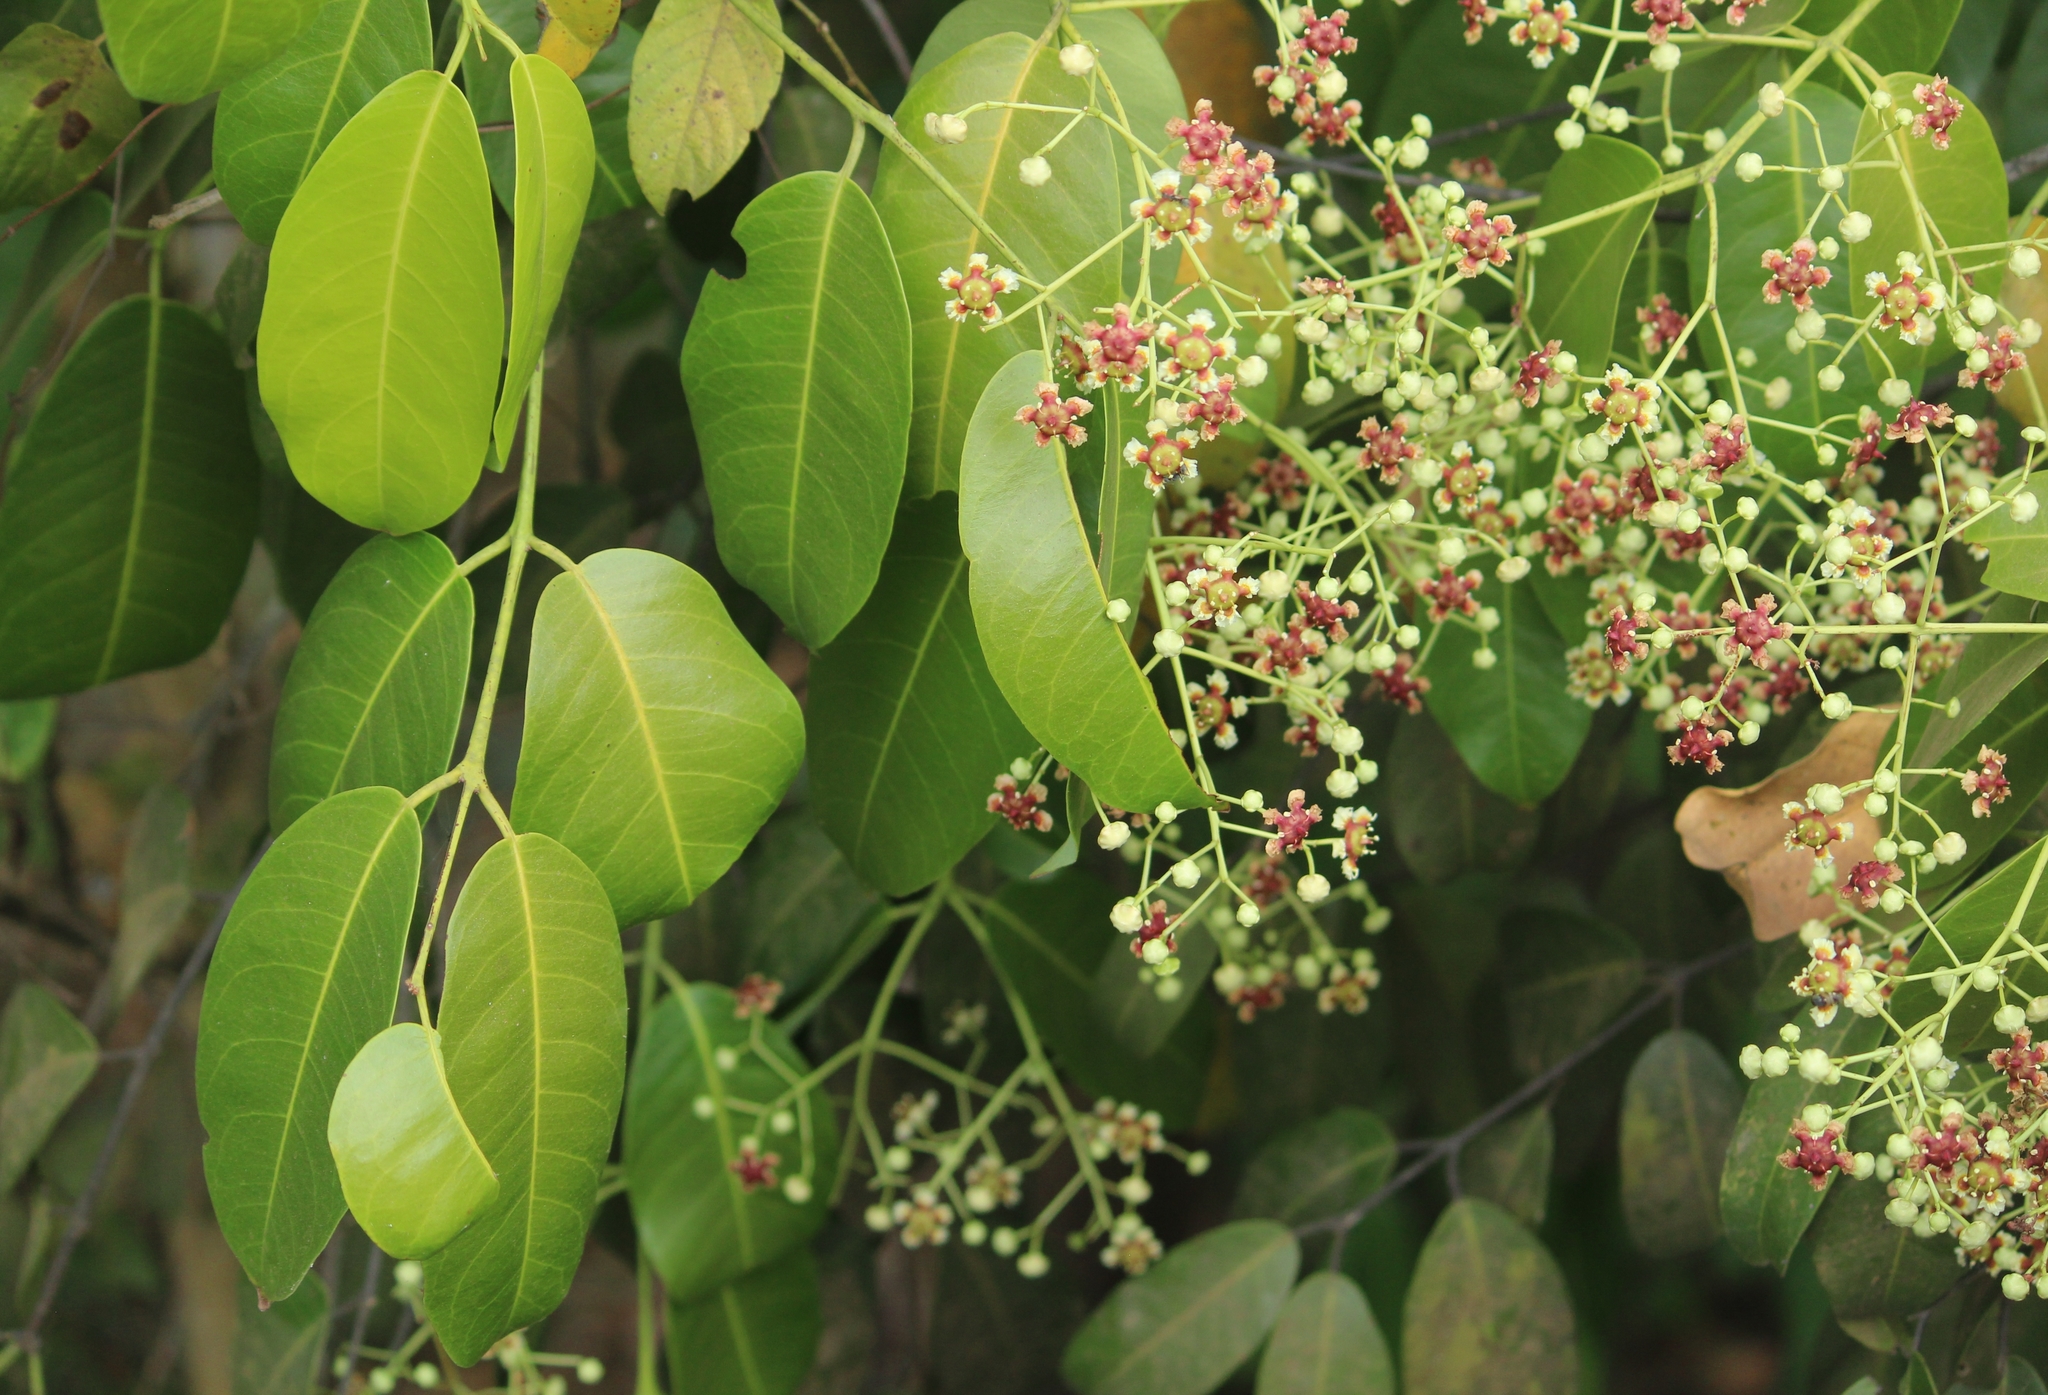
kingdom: Plantae
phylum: Tracheophyta
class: Magnoliopsida
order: Celastrales
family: Celastraceae
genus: Lophopetalum
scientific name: Lophopetalum wightianum
